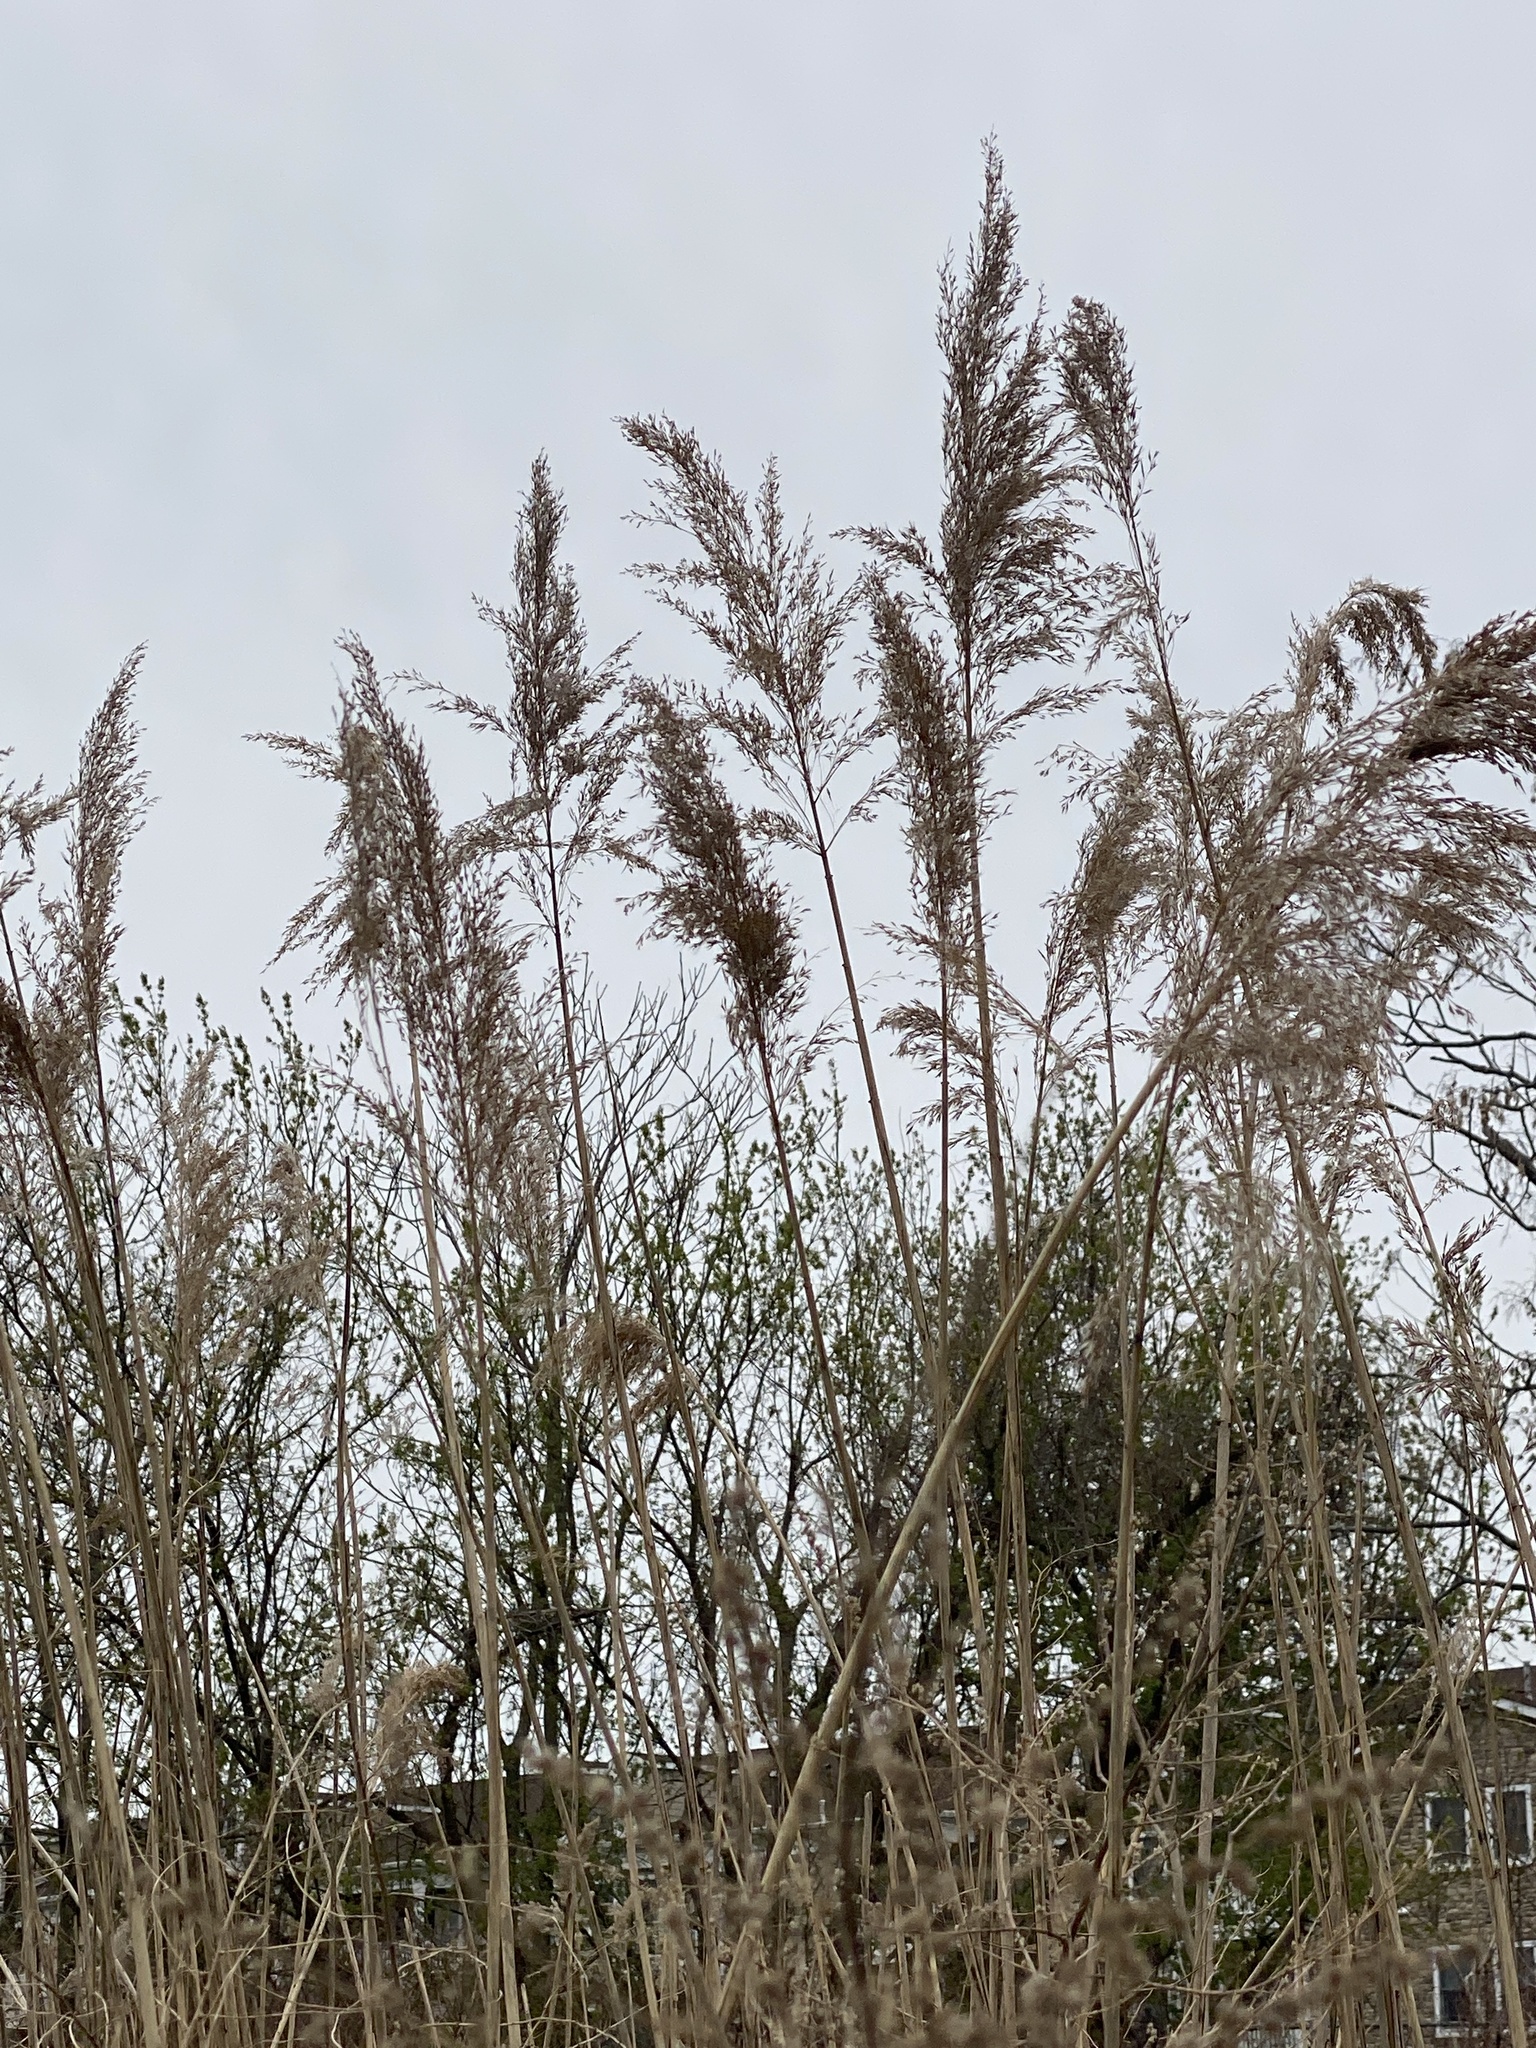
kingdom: Plantae
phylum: Tracheophyta
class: Liliopsida
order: Poales
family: Poaceae
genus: Phragmites
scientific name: Phragmites australis
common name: Common reed
